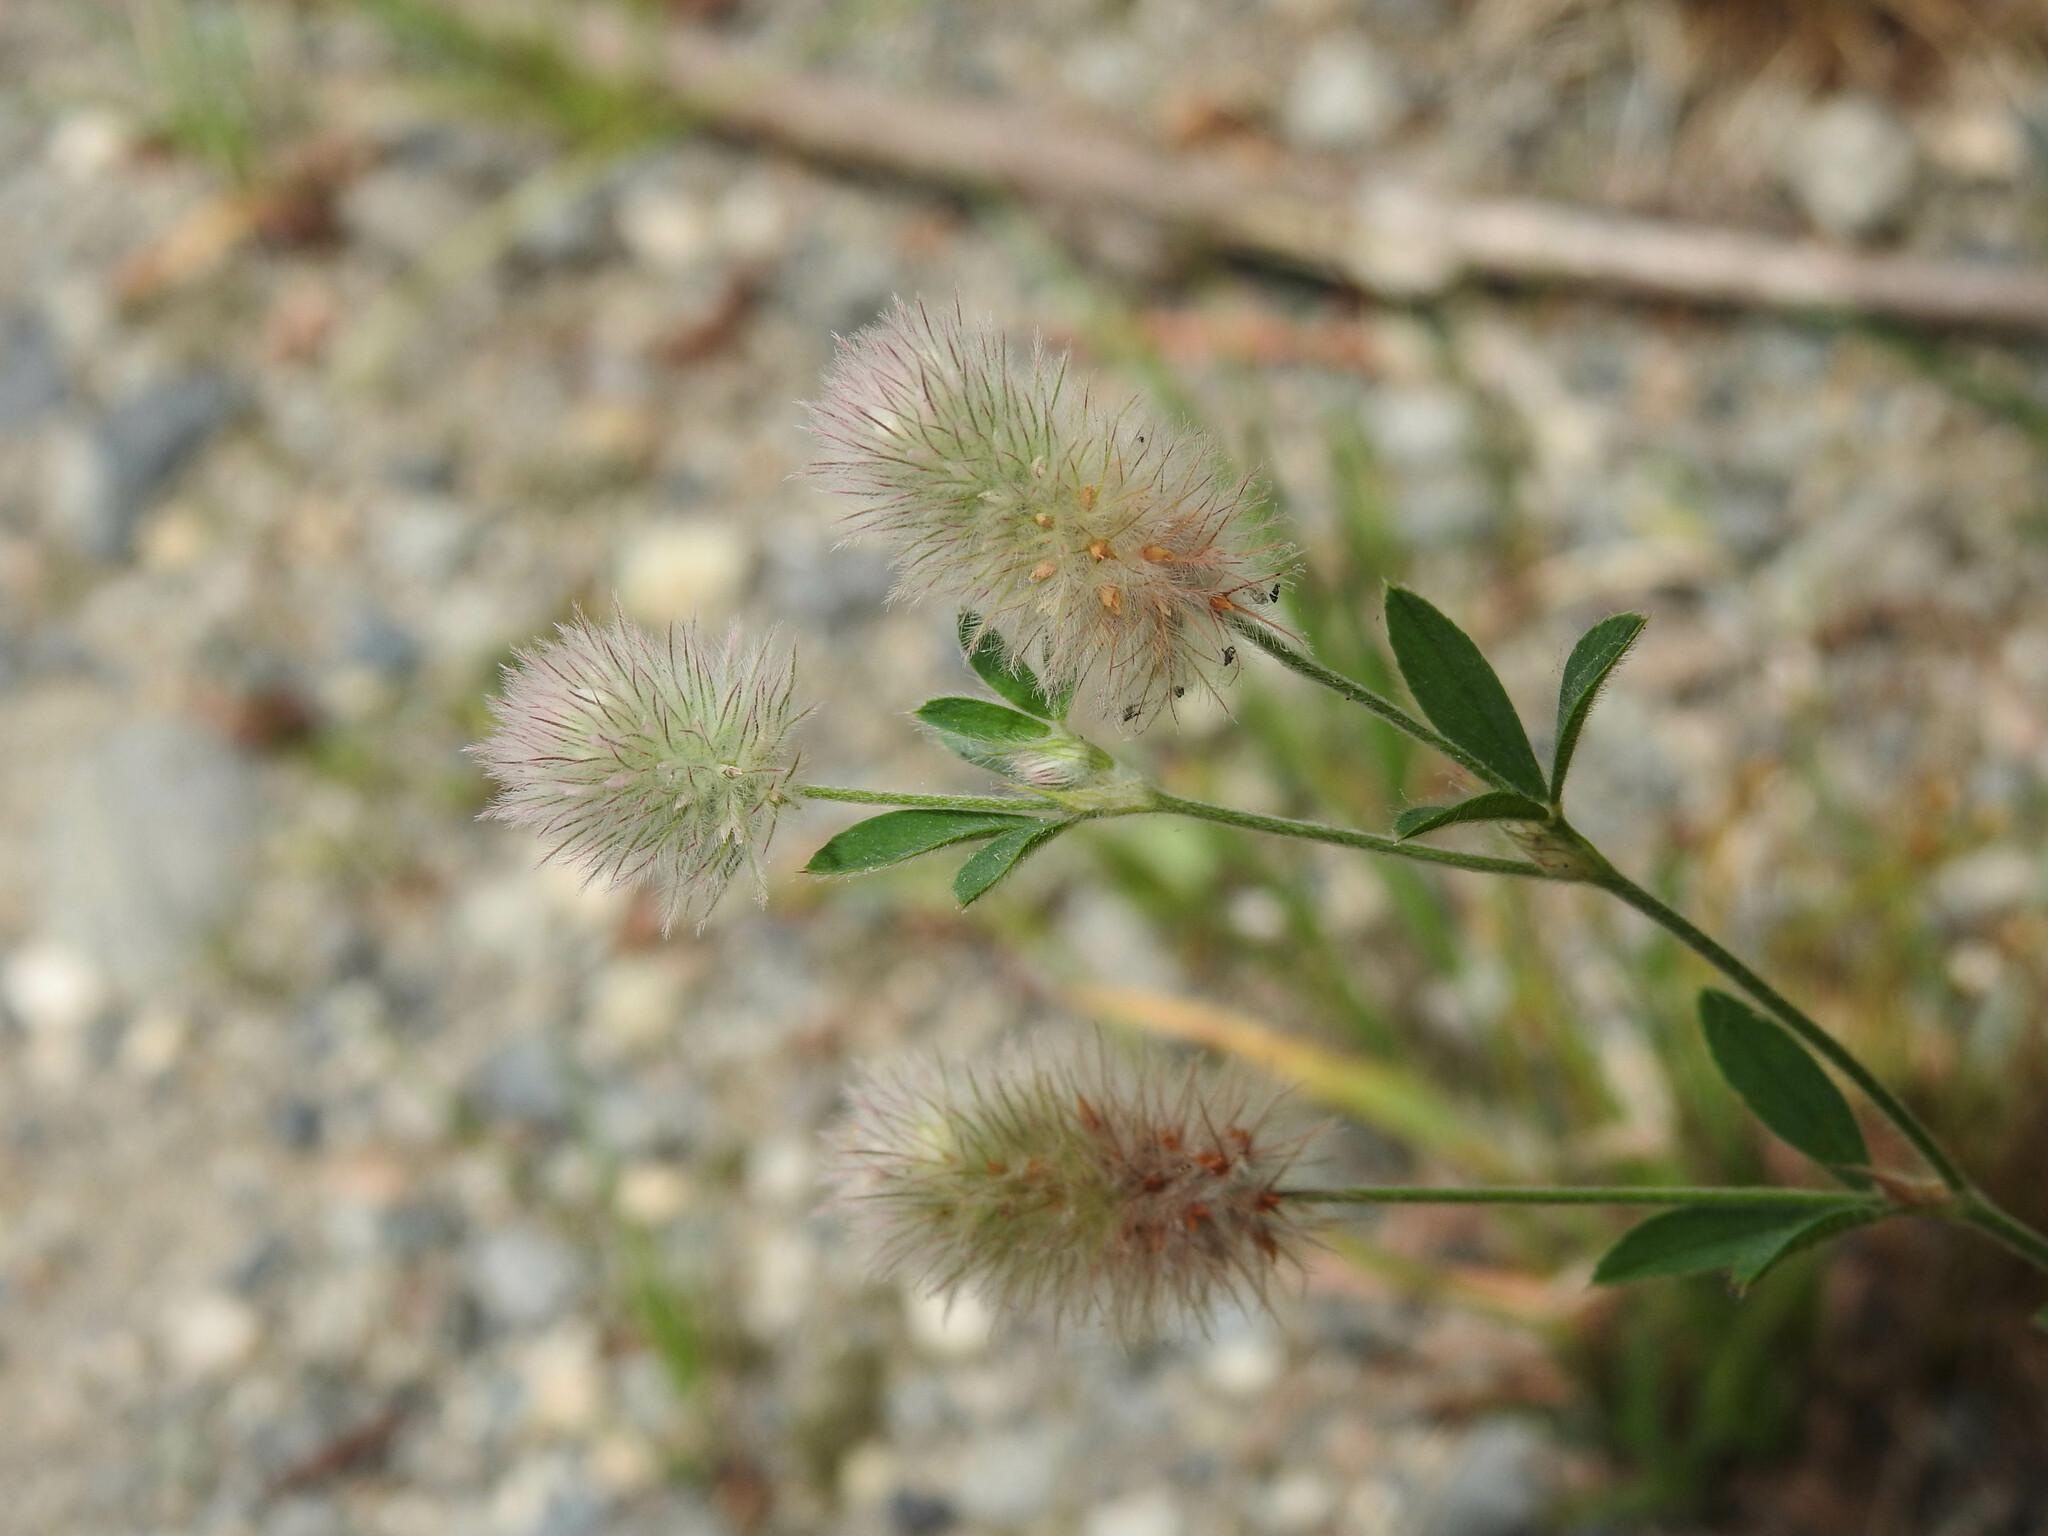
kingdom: Plantae
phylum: Tracheophyta
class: Magnoliopsida
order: Fabales
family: Fabaceae
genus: Trifolium
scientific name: Trifolium arvense
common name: Hare's-foot clover
